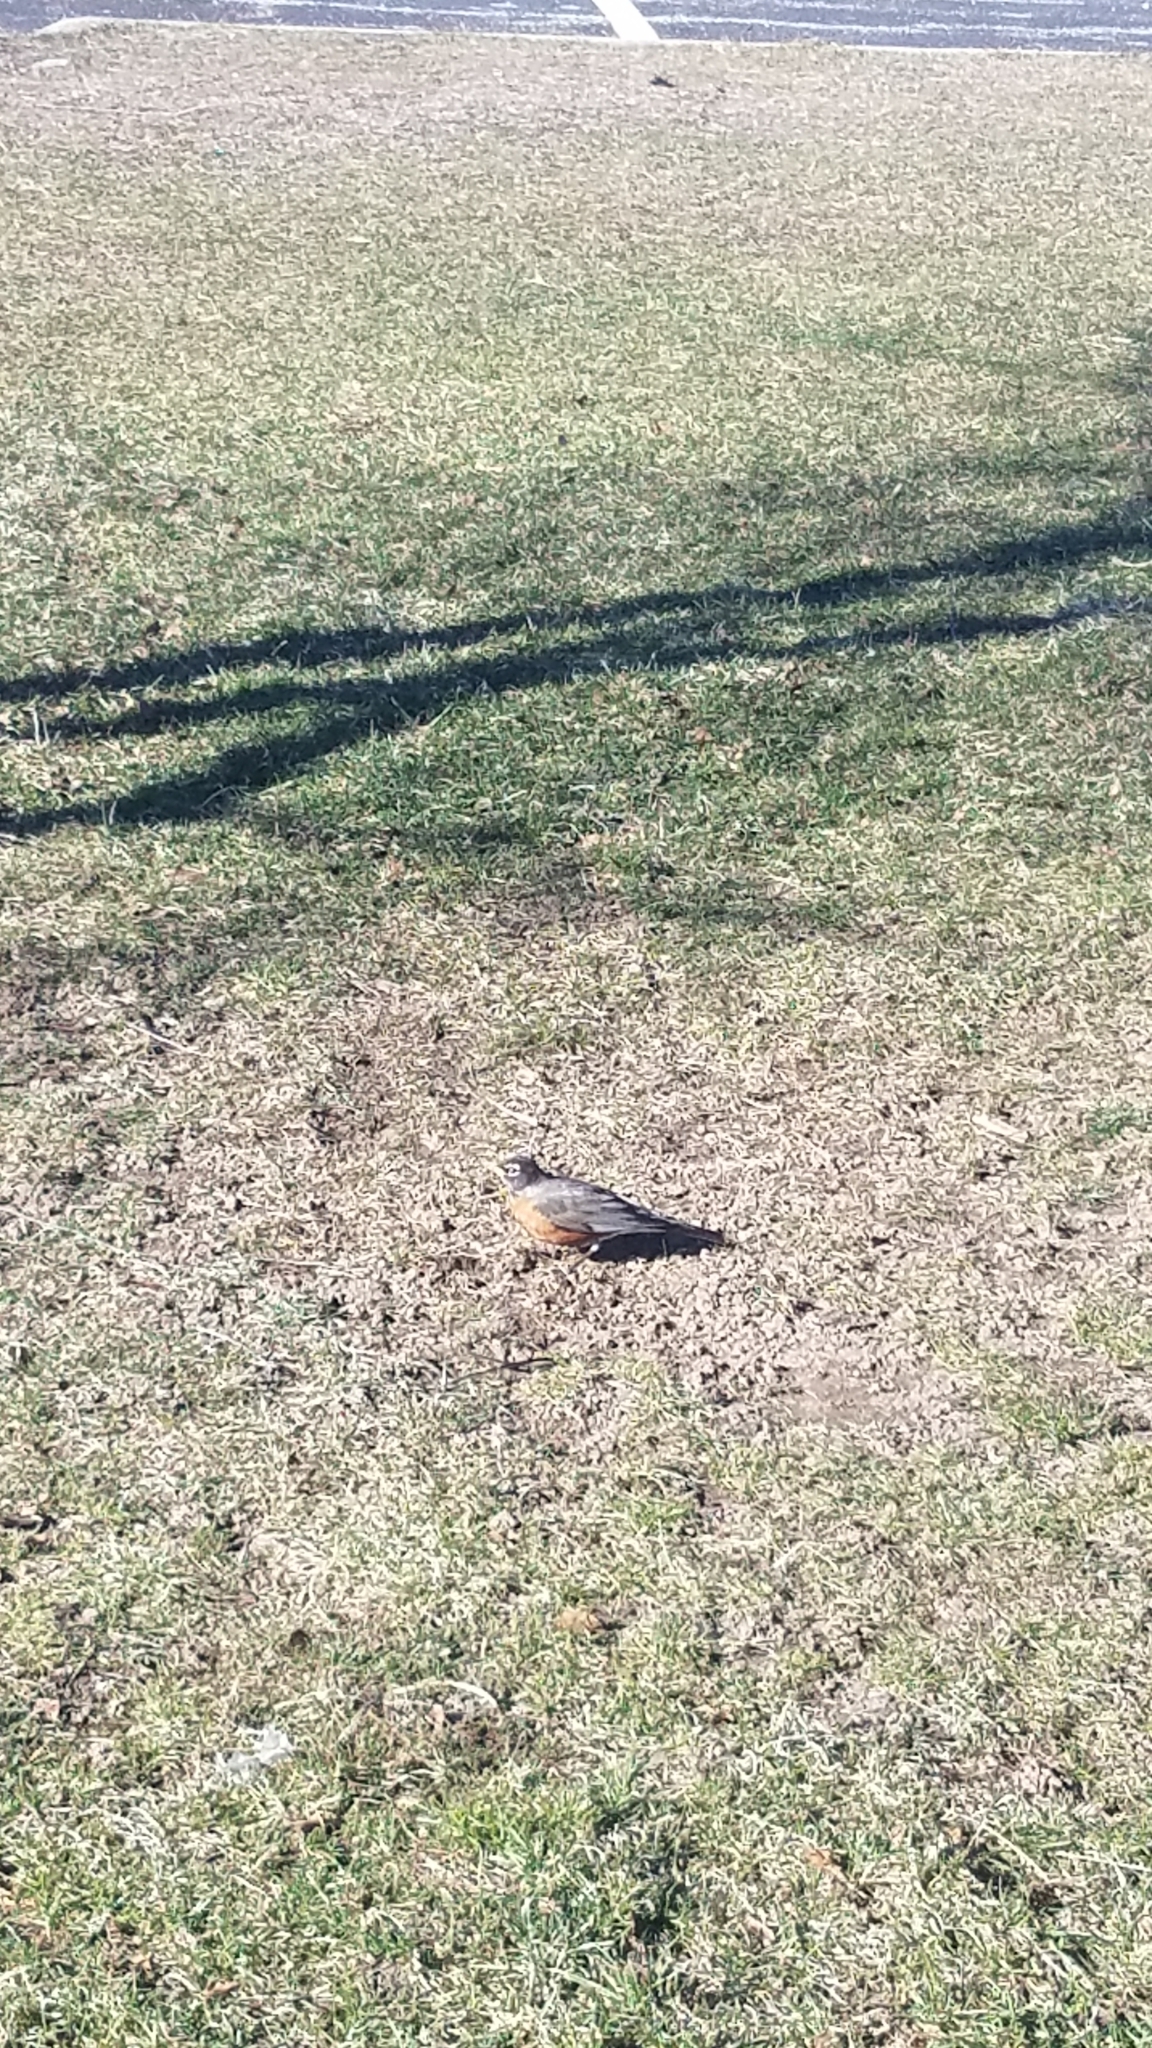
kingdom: Animalia
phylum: Chordata
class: Aves
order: Passeriformes
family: Turdidae
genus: Turdus
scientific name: Turdus migratorius
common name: American robin
